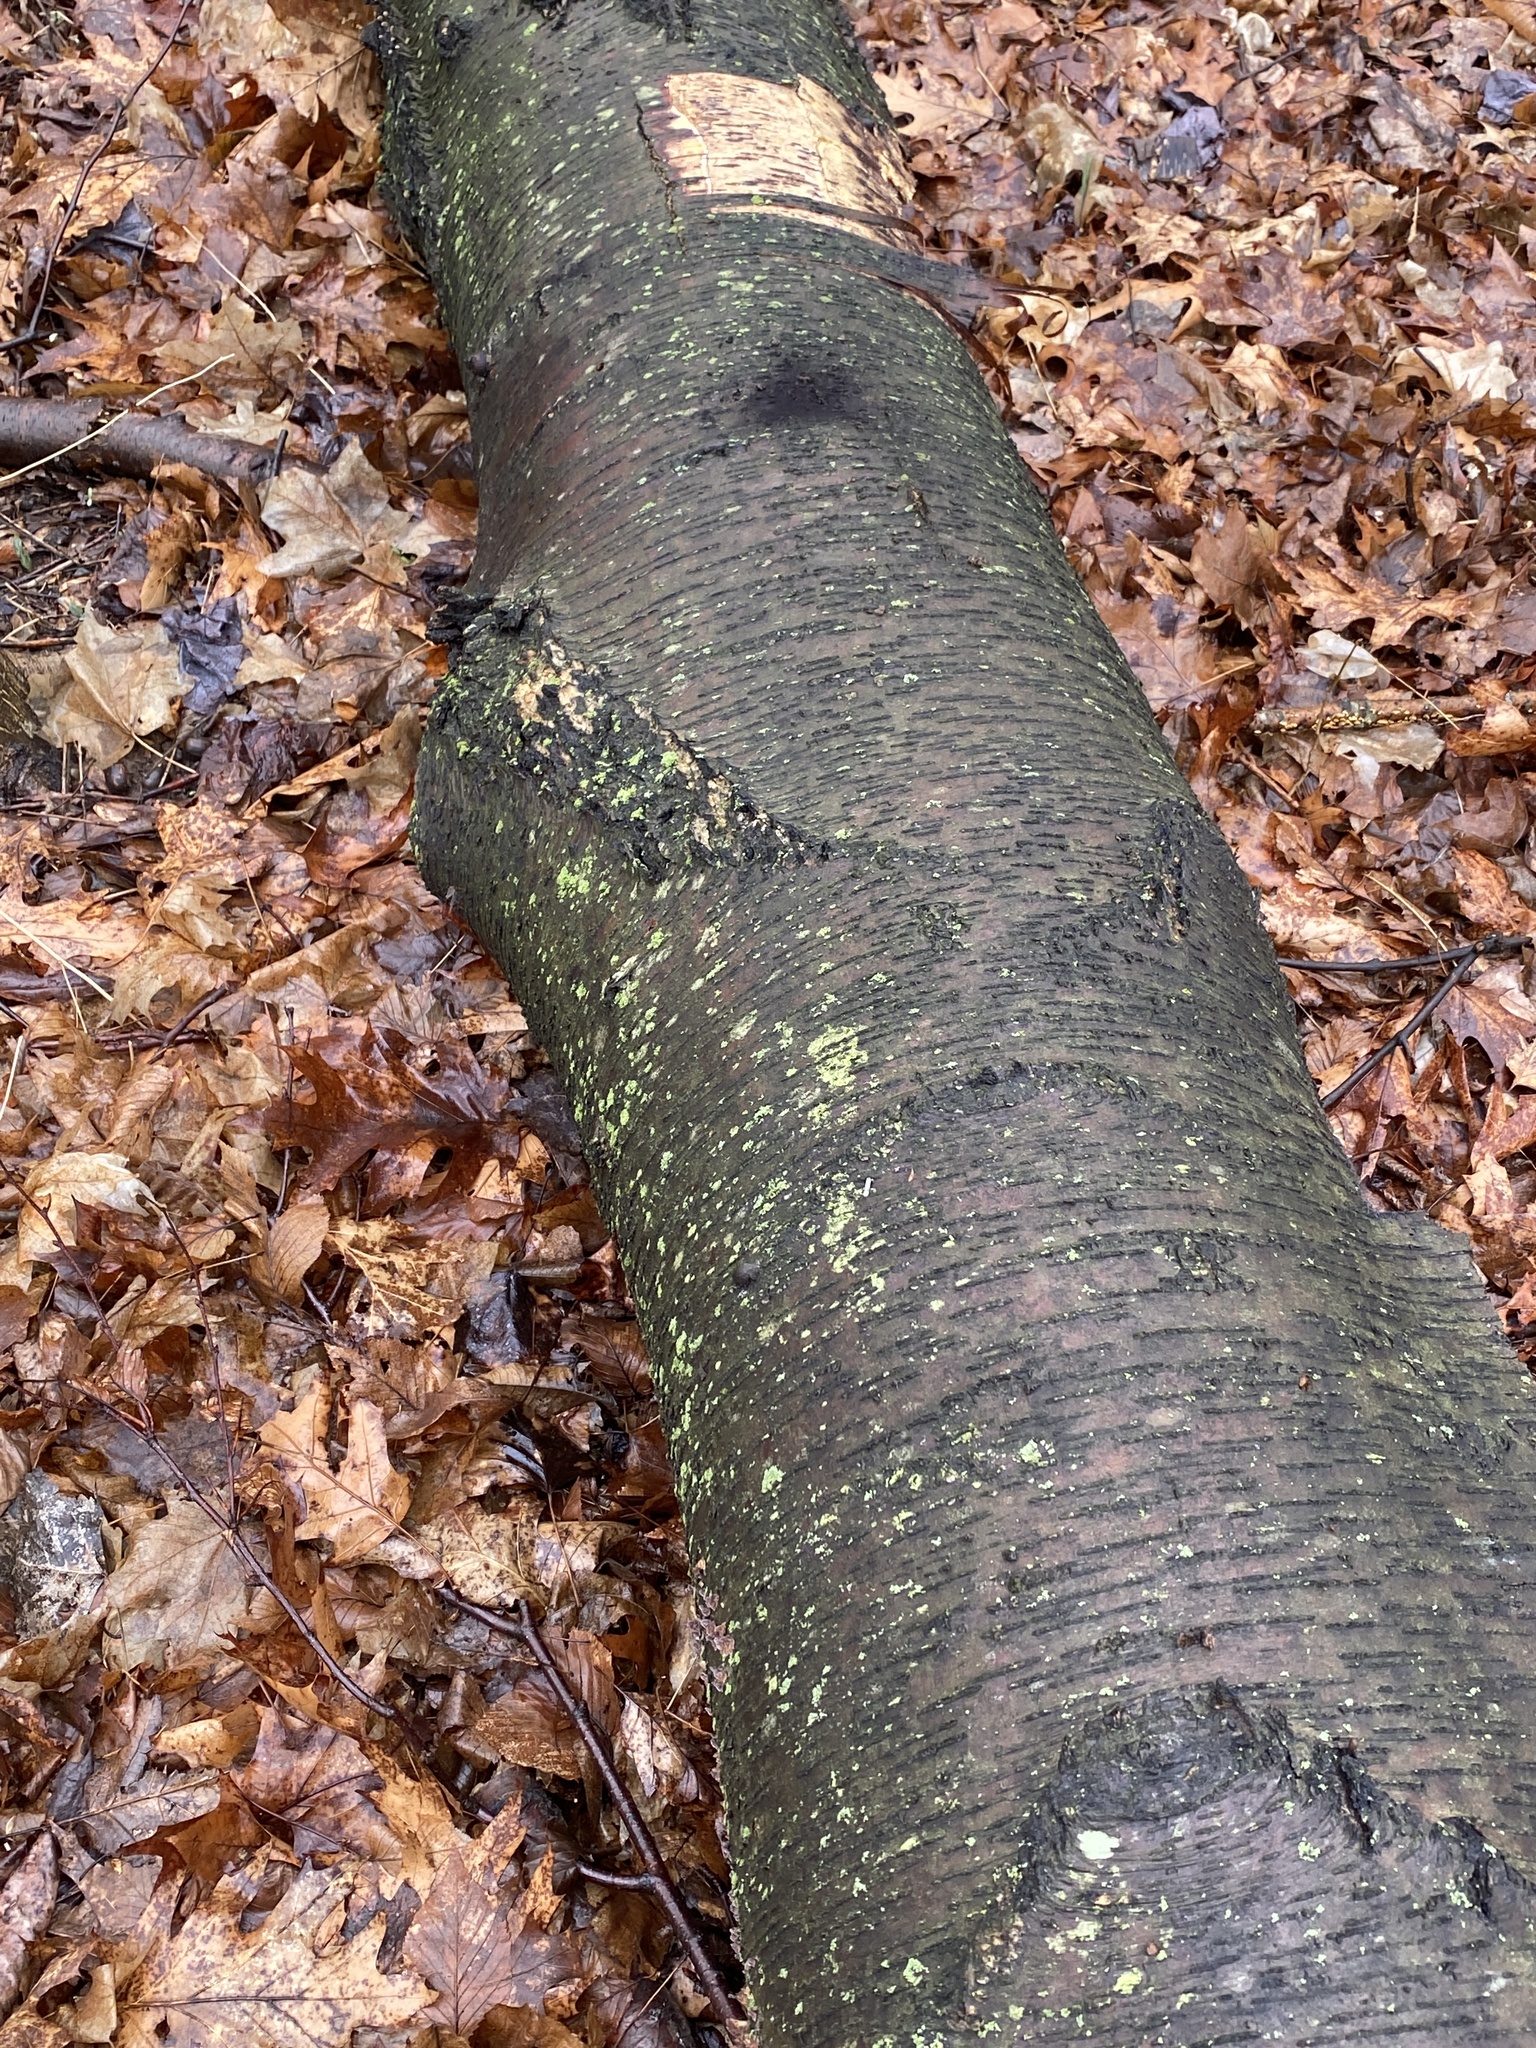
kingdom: Plantae
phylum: Tracheophyta
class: Magnoliopsida
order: Fagales
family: Betulaceae
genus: Betula
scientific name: Betula lenta
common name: Black birch
